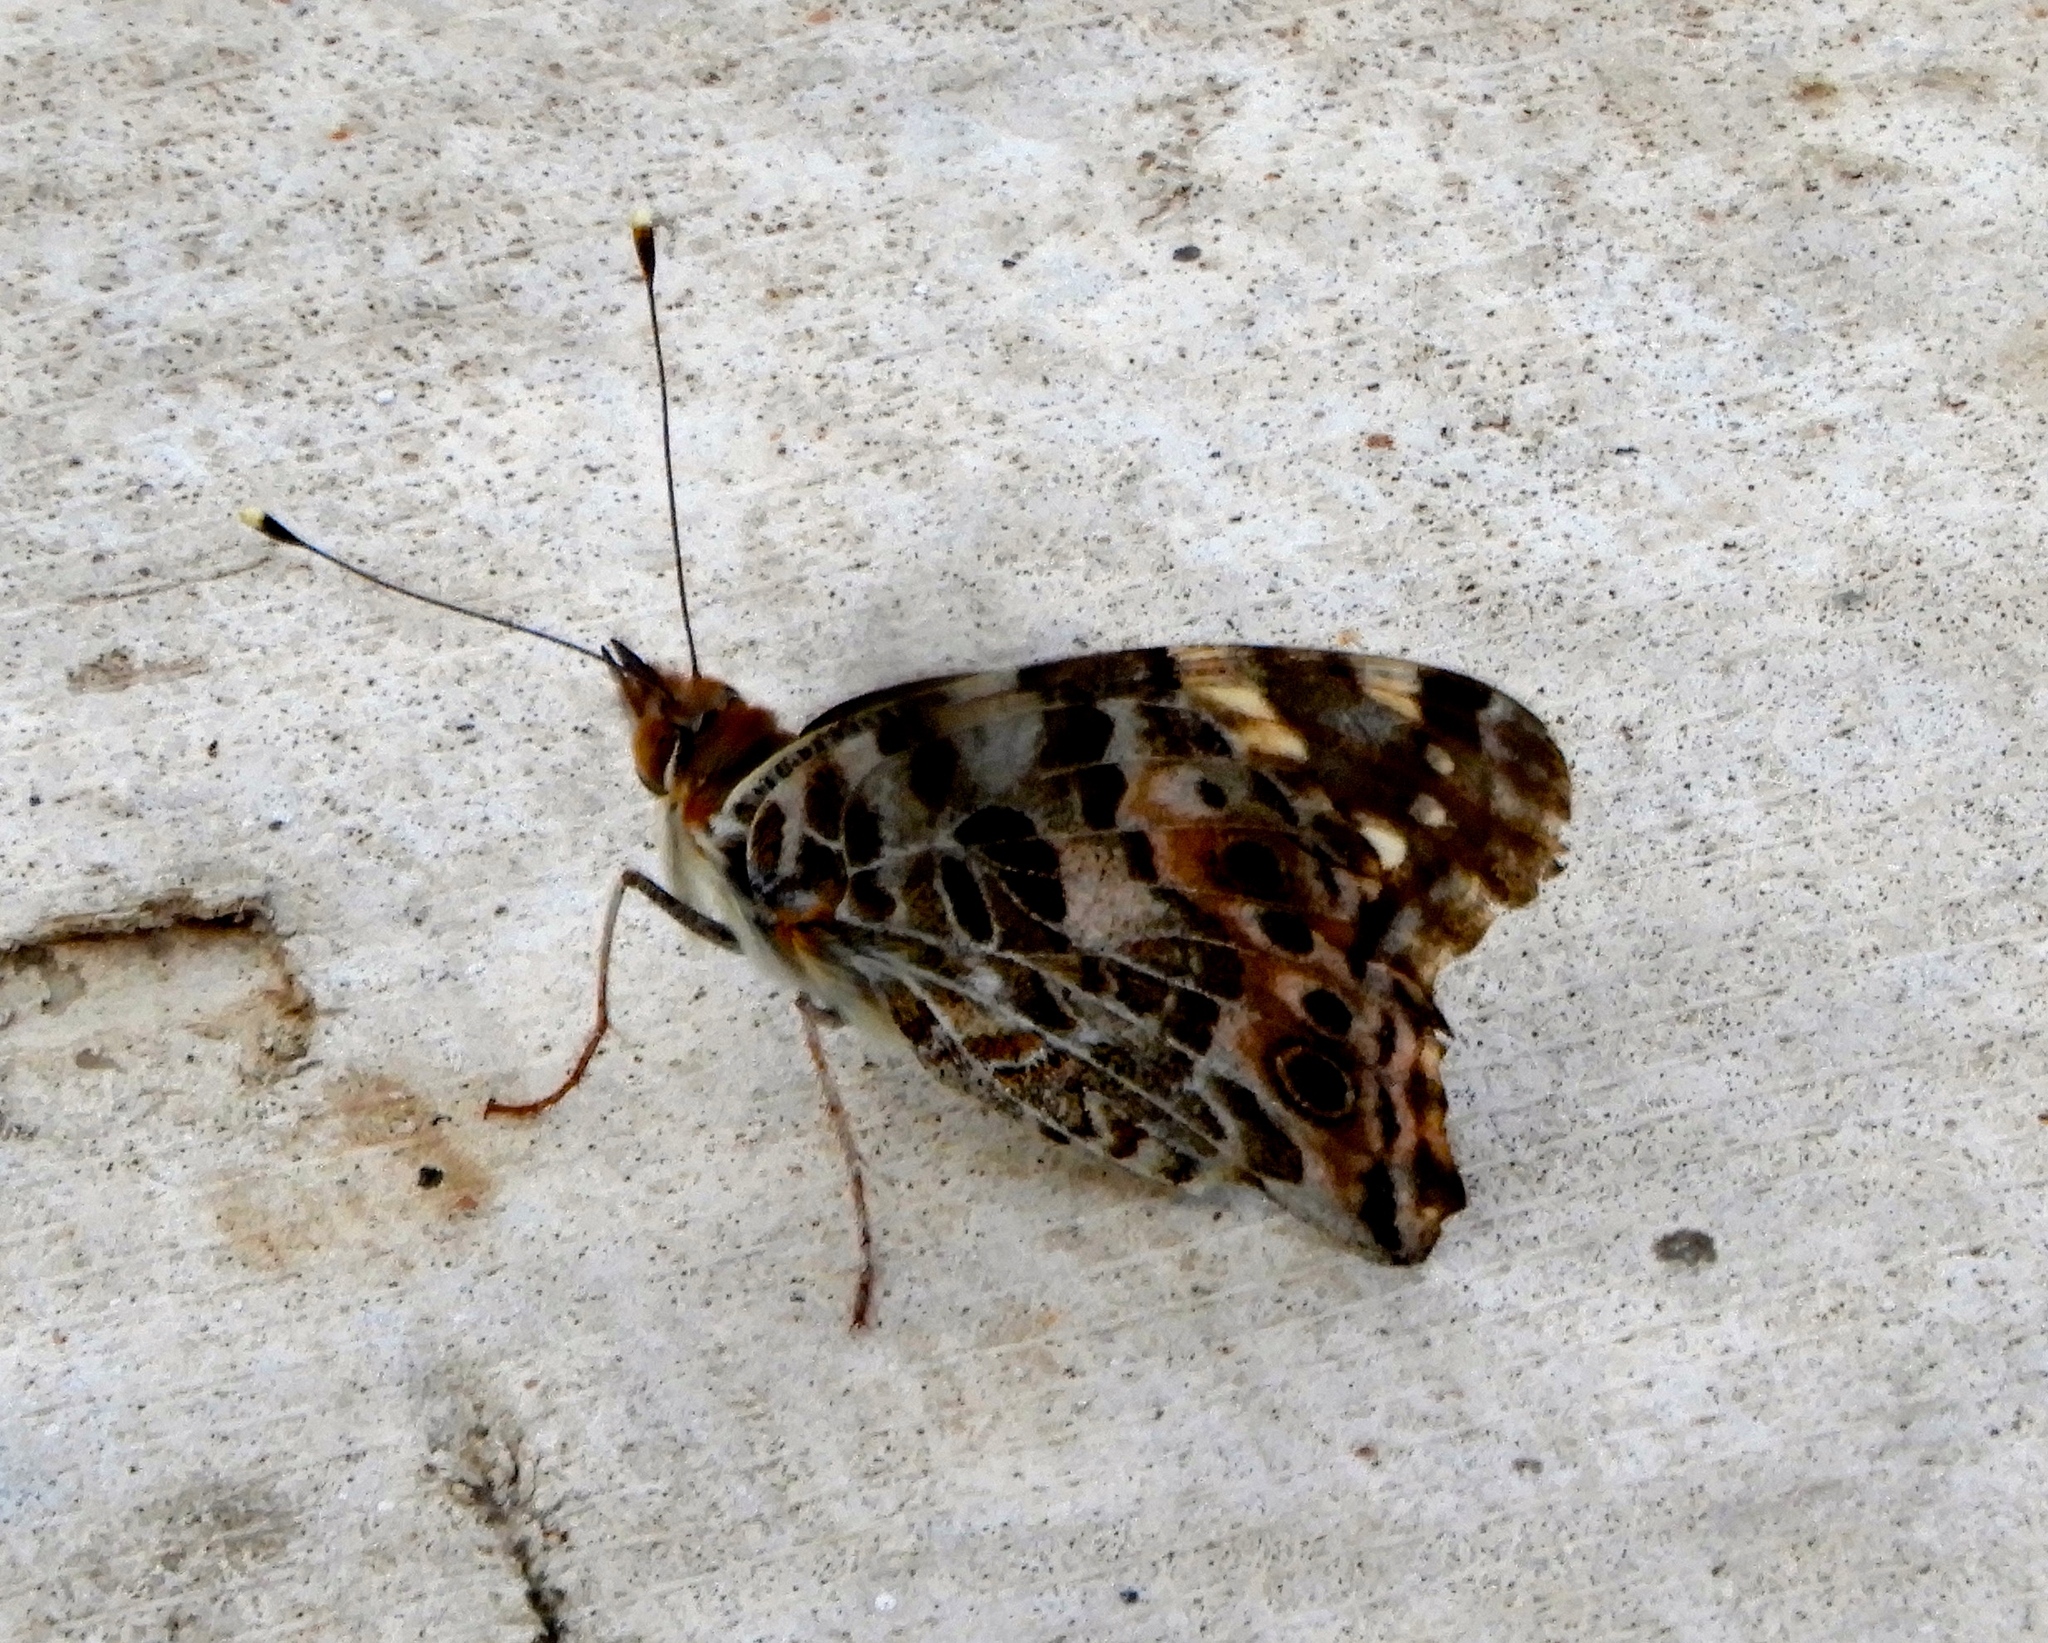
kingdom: Animalia
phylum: Arthropoda
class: Insecta
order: Lepidoptera
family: Nymphalidae
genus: Vanessa
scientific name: Vanessa cardui
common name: Painted lady
